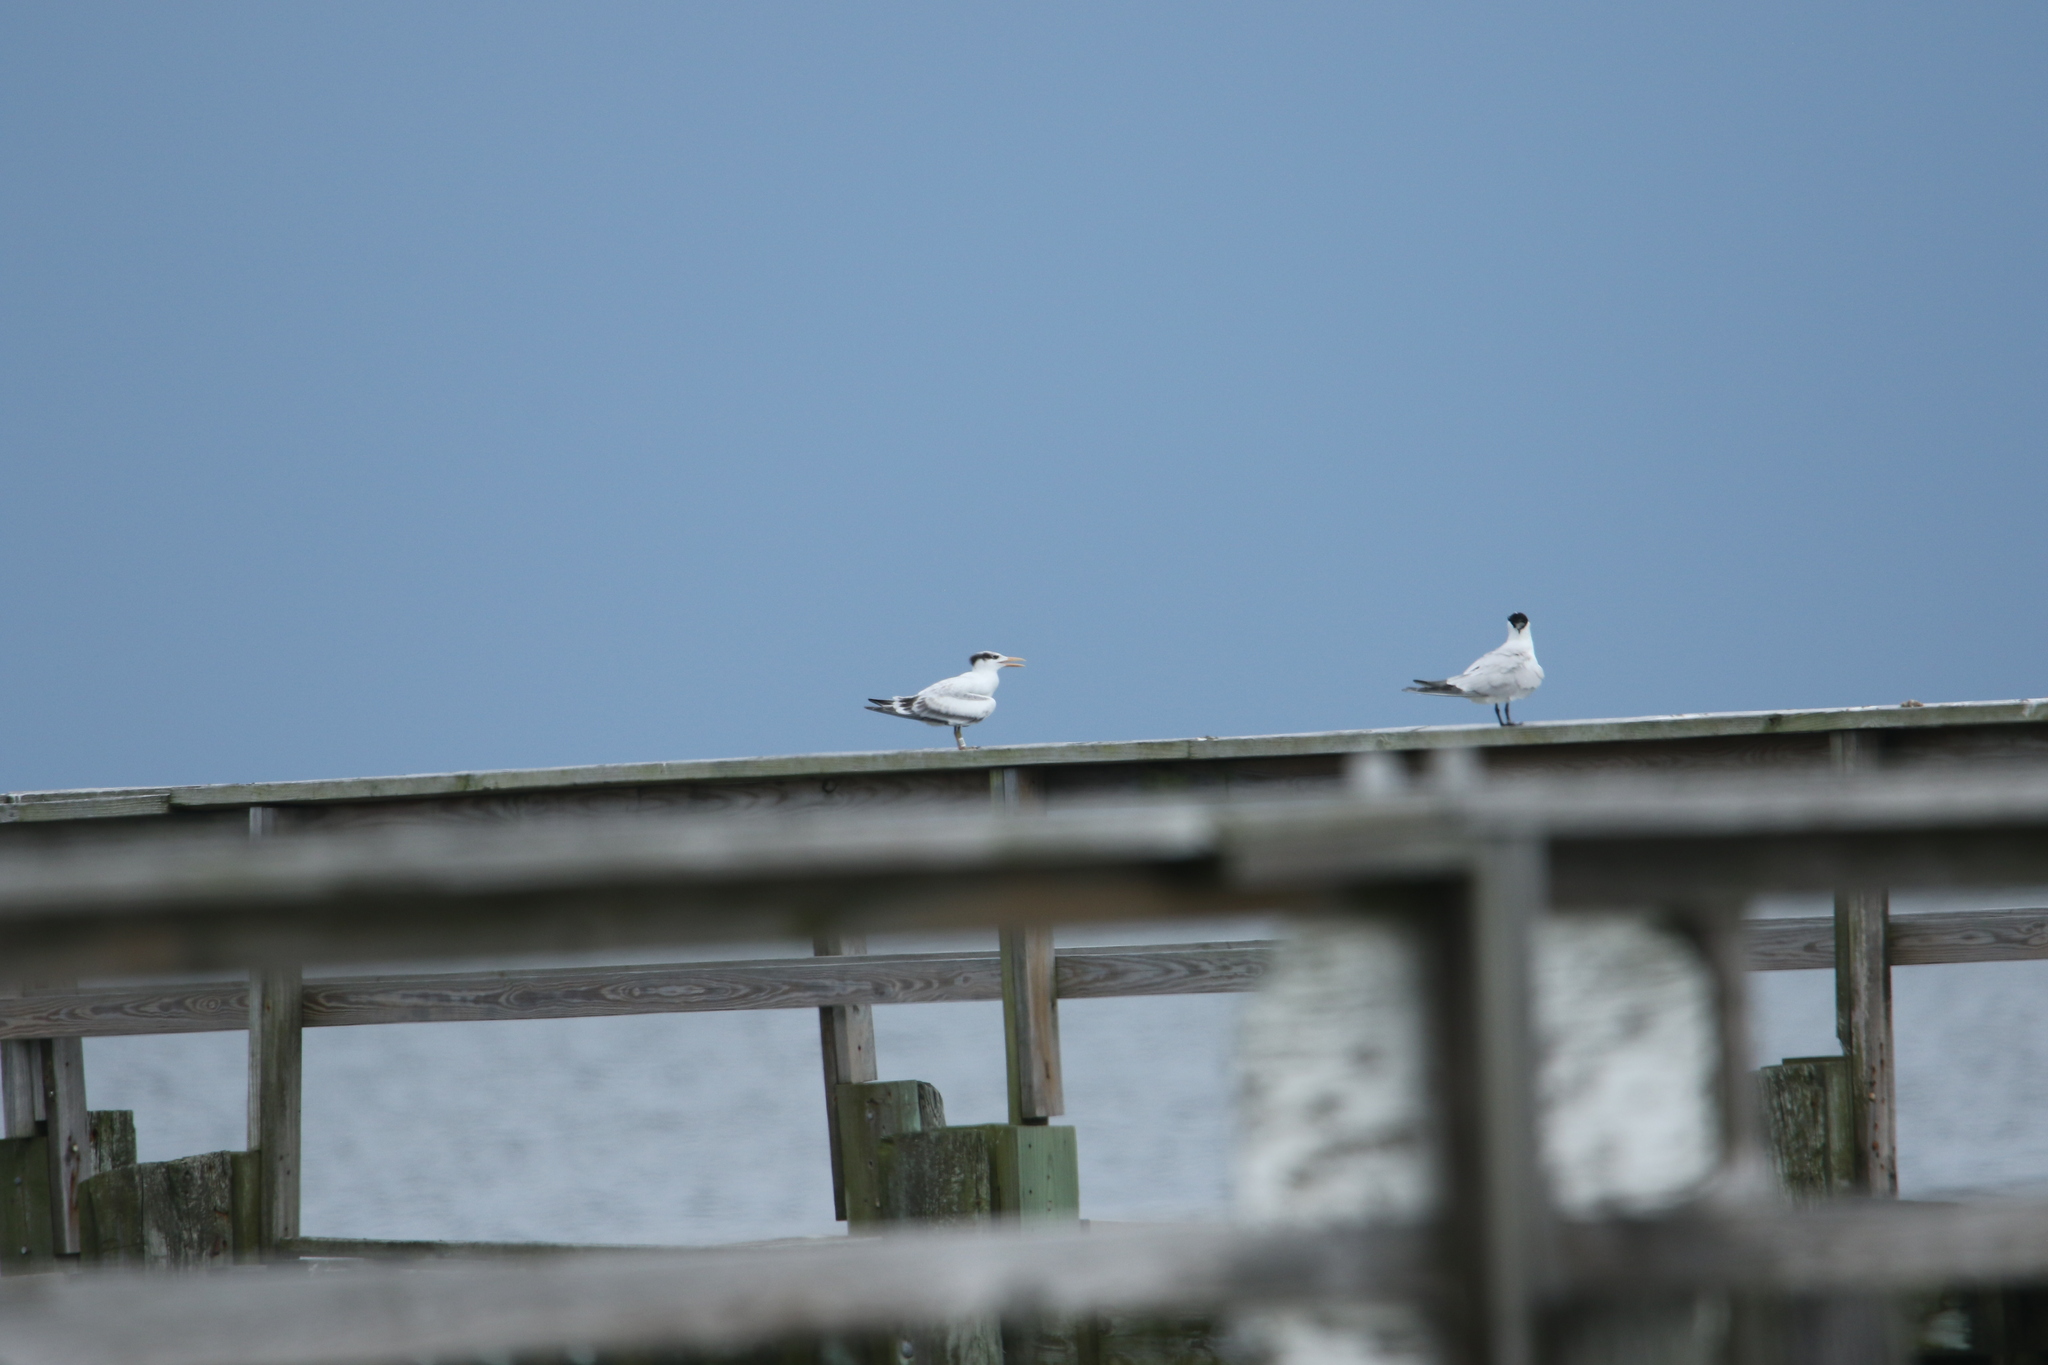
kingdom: Animalia
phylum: Chordata
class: Aves
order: Charadriiformes
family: Laridae
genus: Thalasseus
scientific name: Thalasseus maximus
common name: Royal tern
